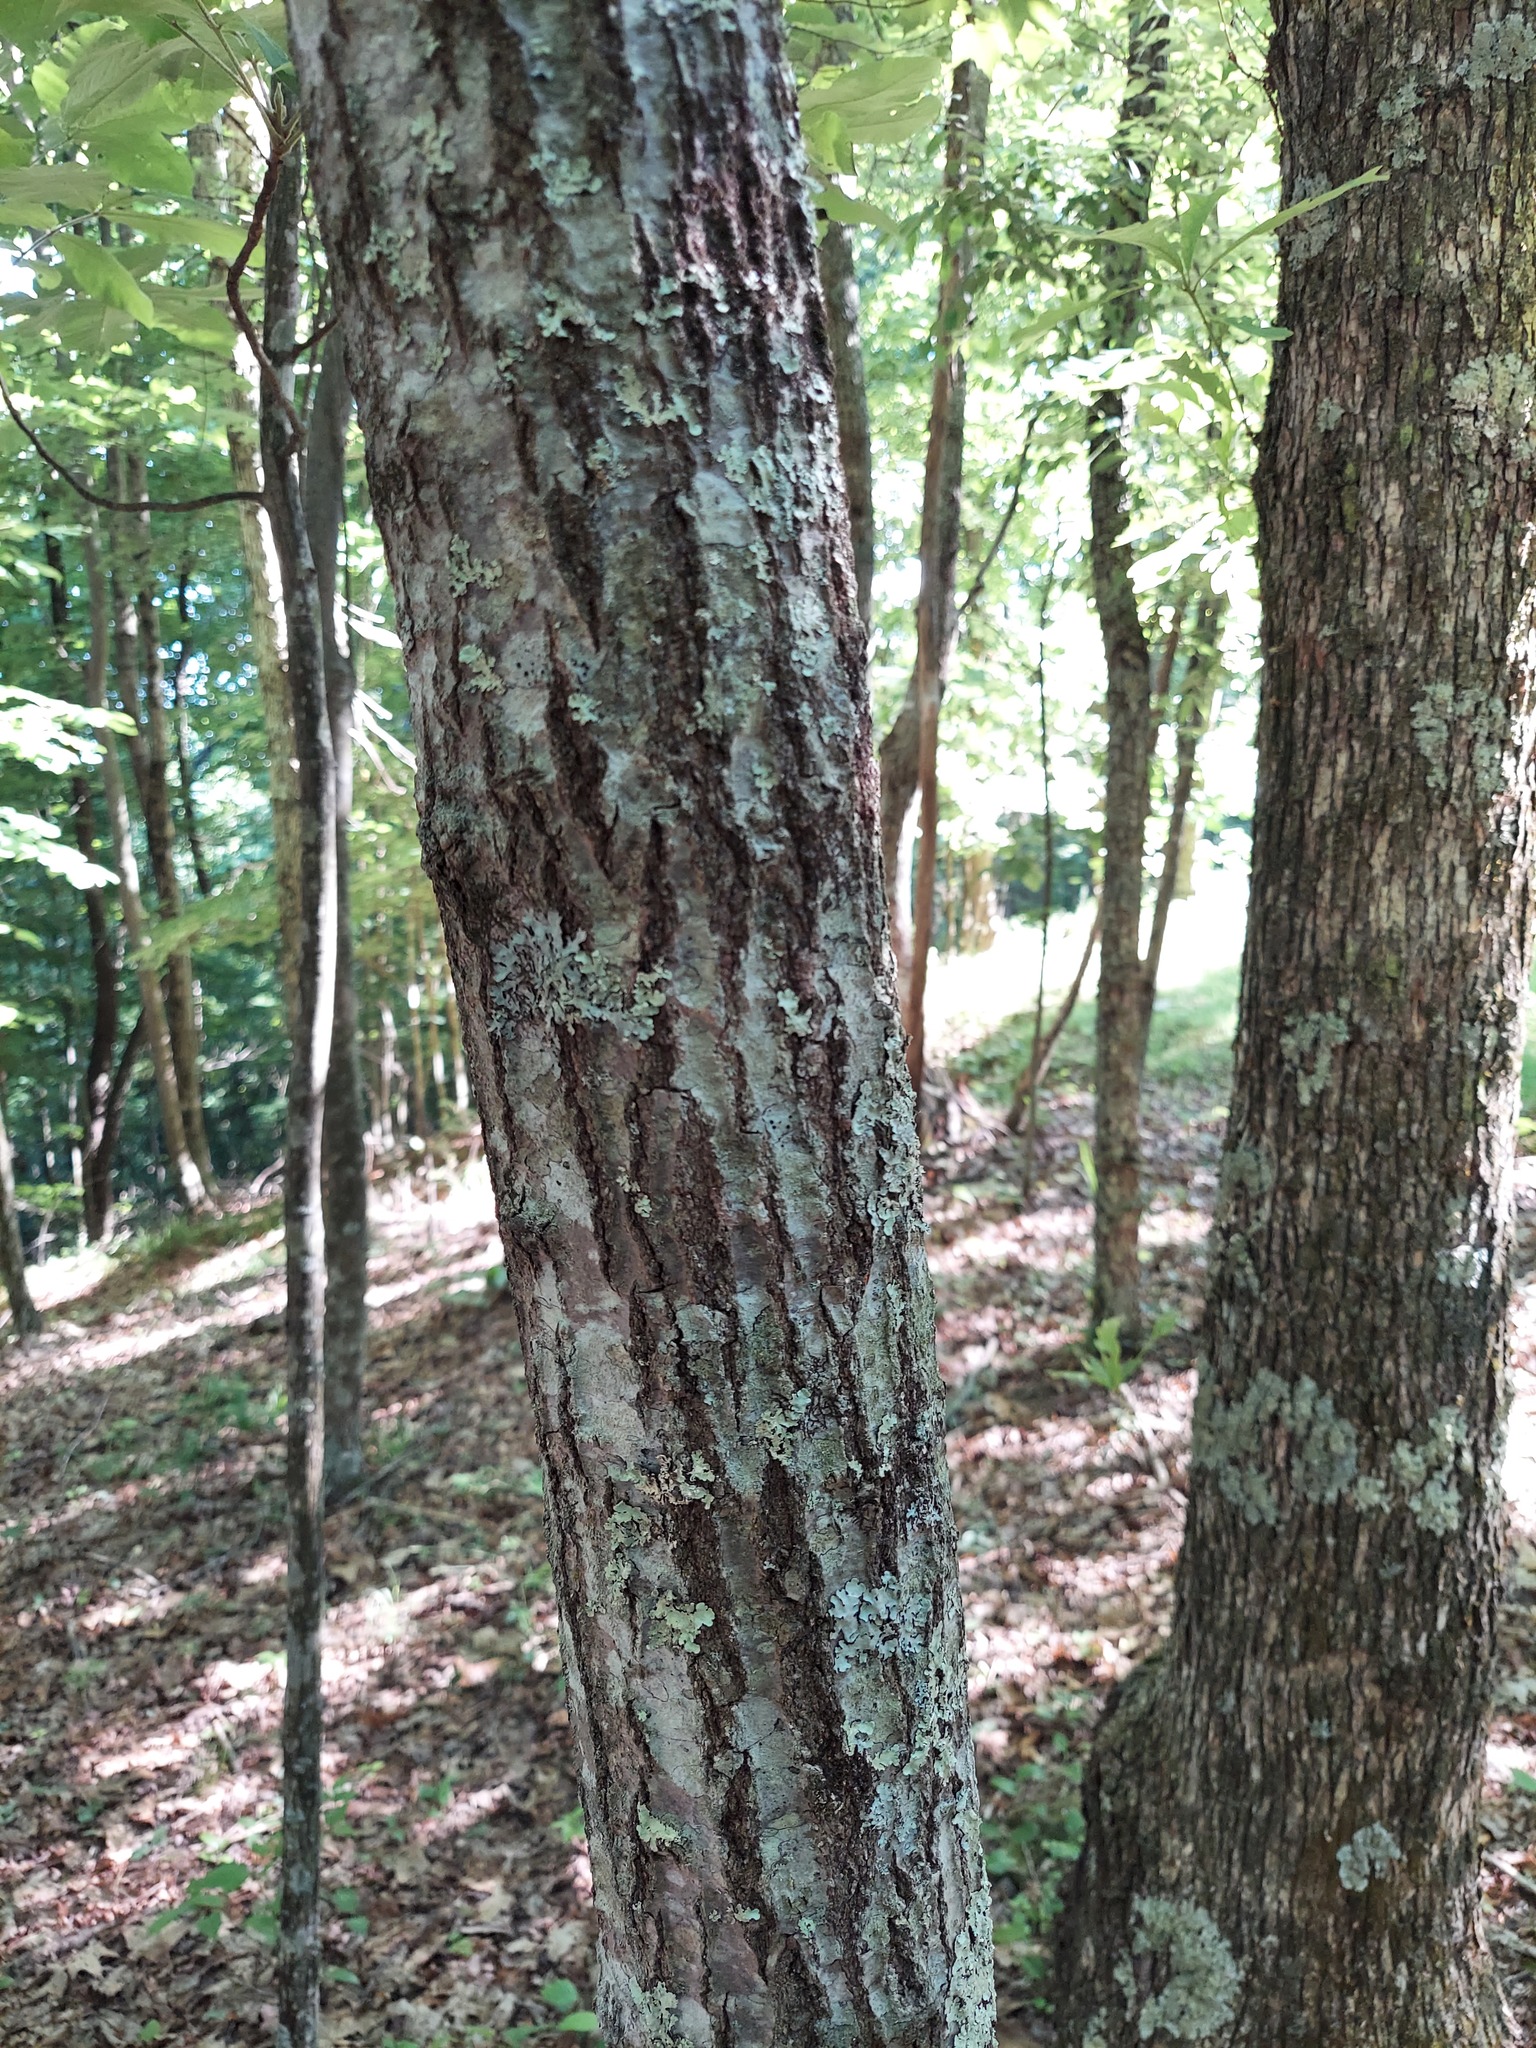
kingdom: Plantae
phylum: Tracheophyta
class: Magnoliopsida
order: Fagales
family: Fagaceae
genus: Quercus
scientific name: Quercus rubra
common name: Red oak
